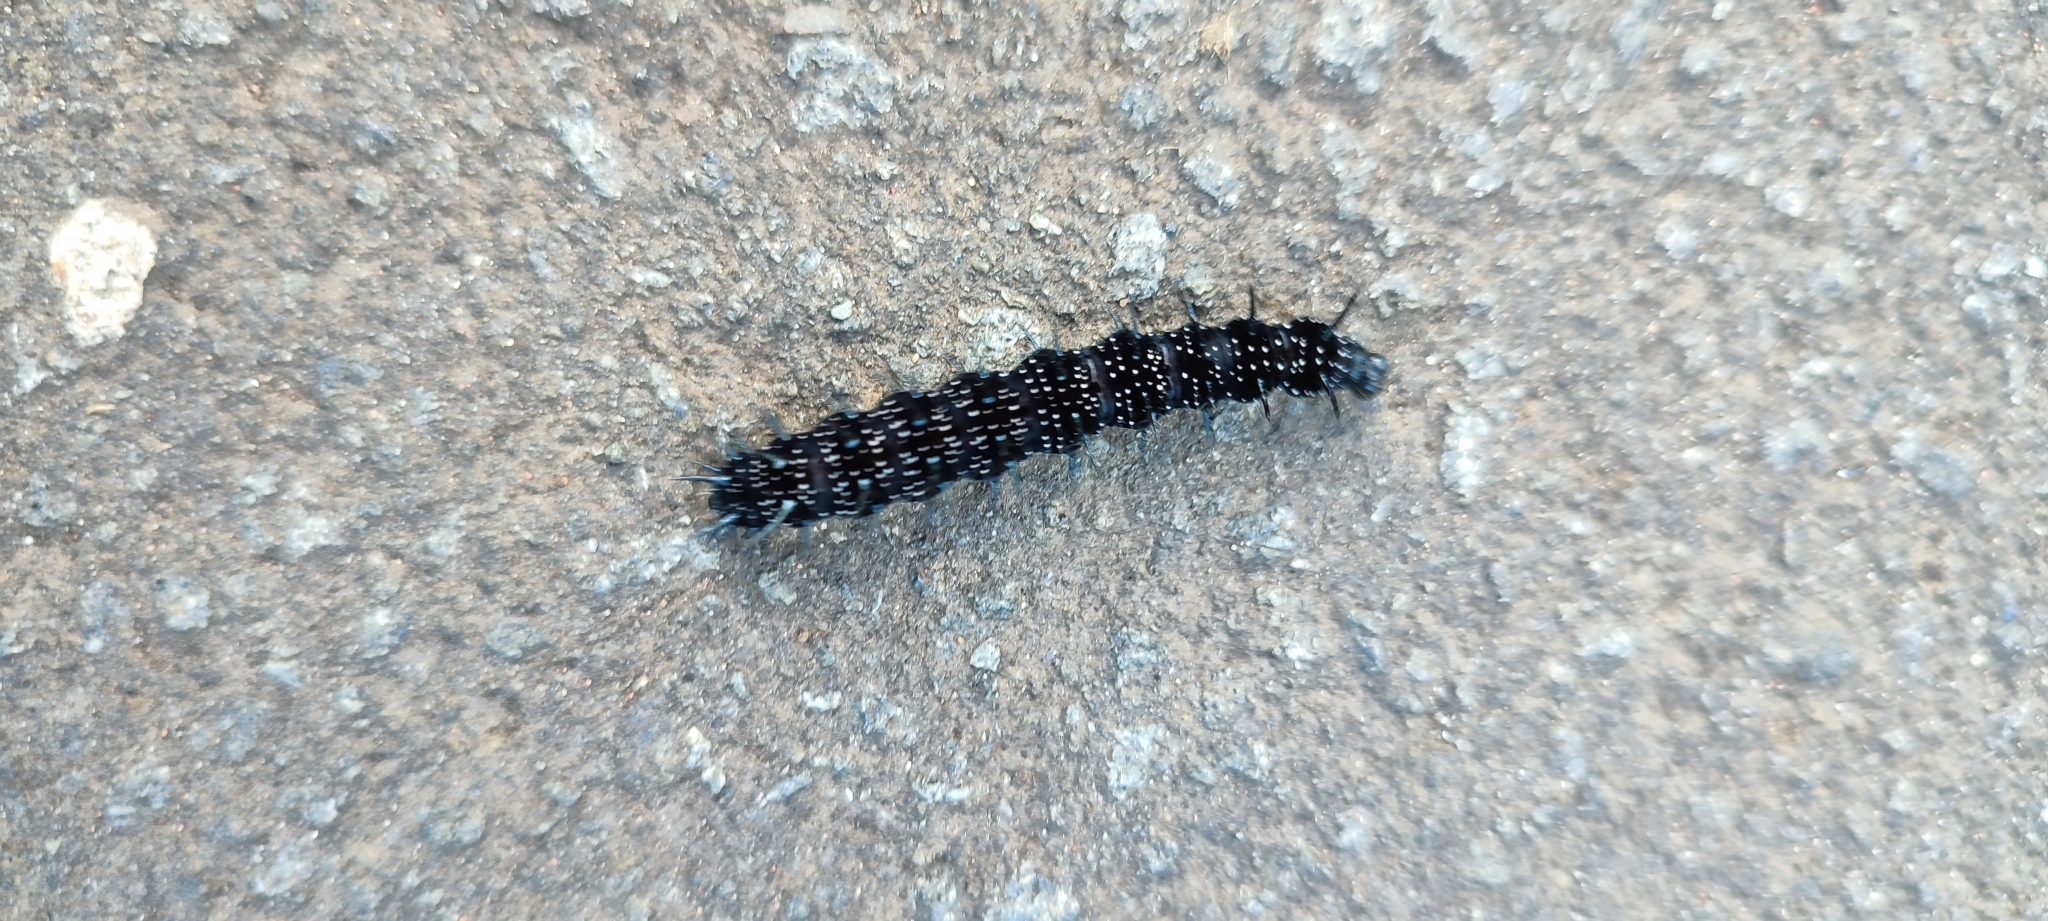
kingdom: Animalia
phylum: Arthropoda
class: Insecta
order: Lepidoptera
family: Nymphalidae
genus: Aglais
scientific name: Aglais io
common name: Peacock
